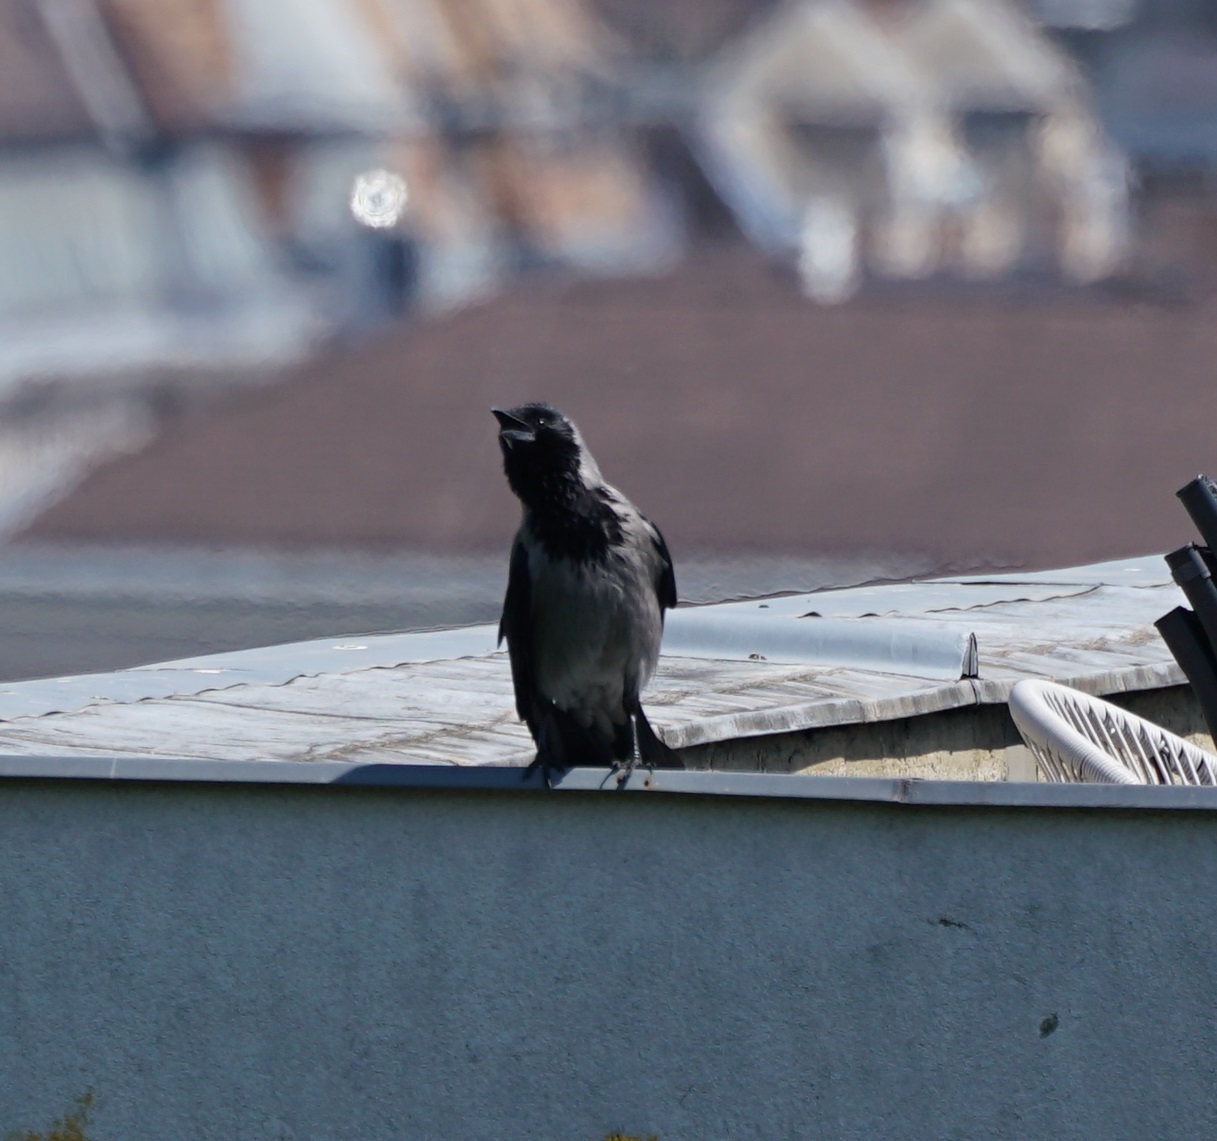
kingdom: Animalia
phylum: Chordata
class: Aves
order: Passeriformes
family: Corvidae
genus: Corvus
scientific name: Corvus cornix
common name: Hooded crow
